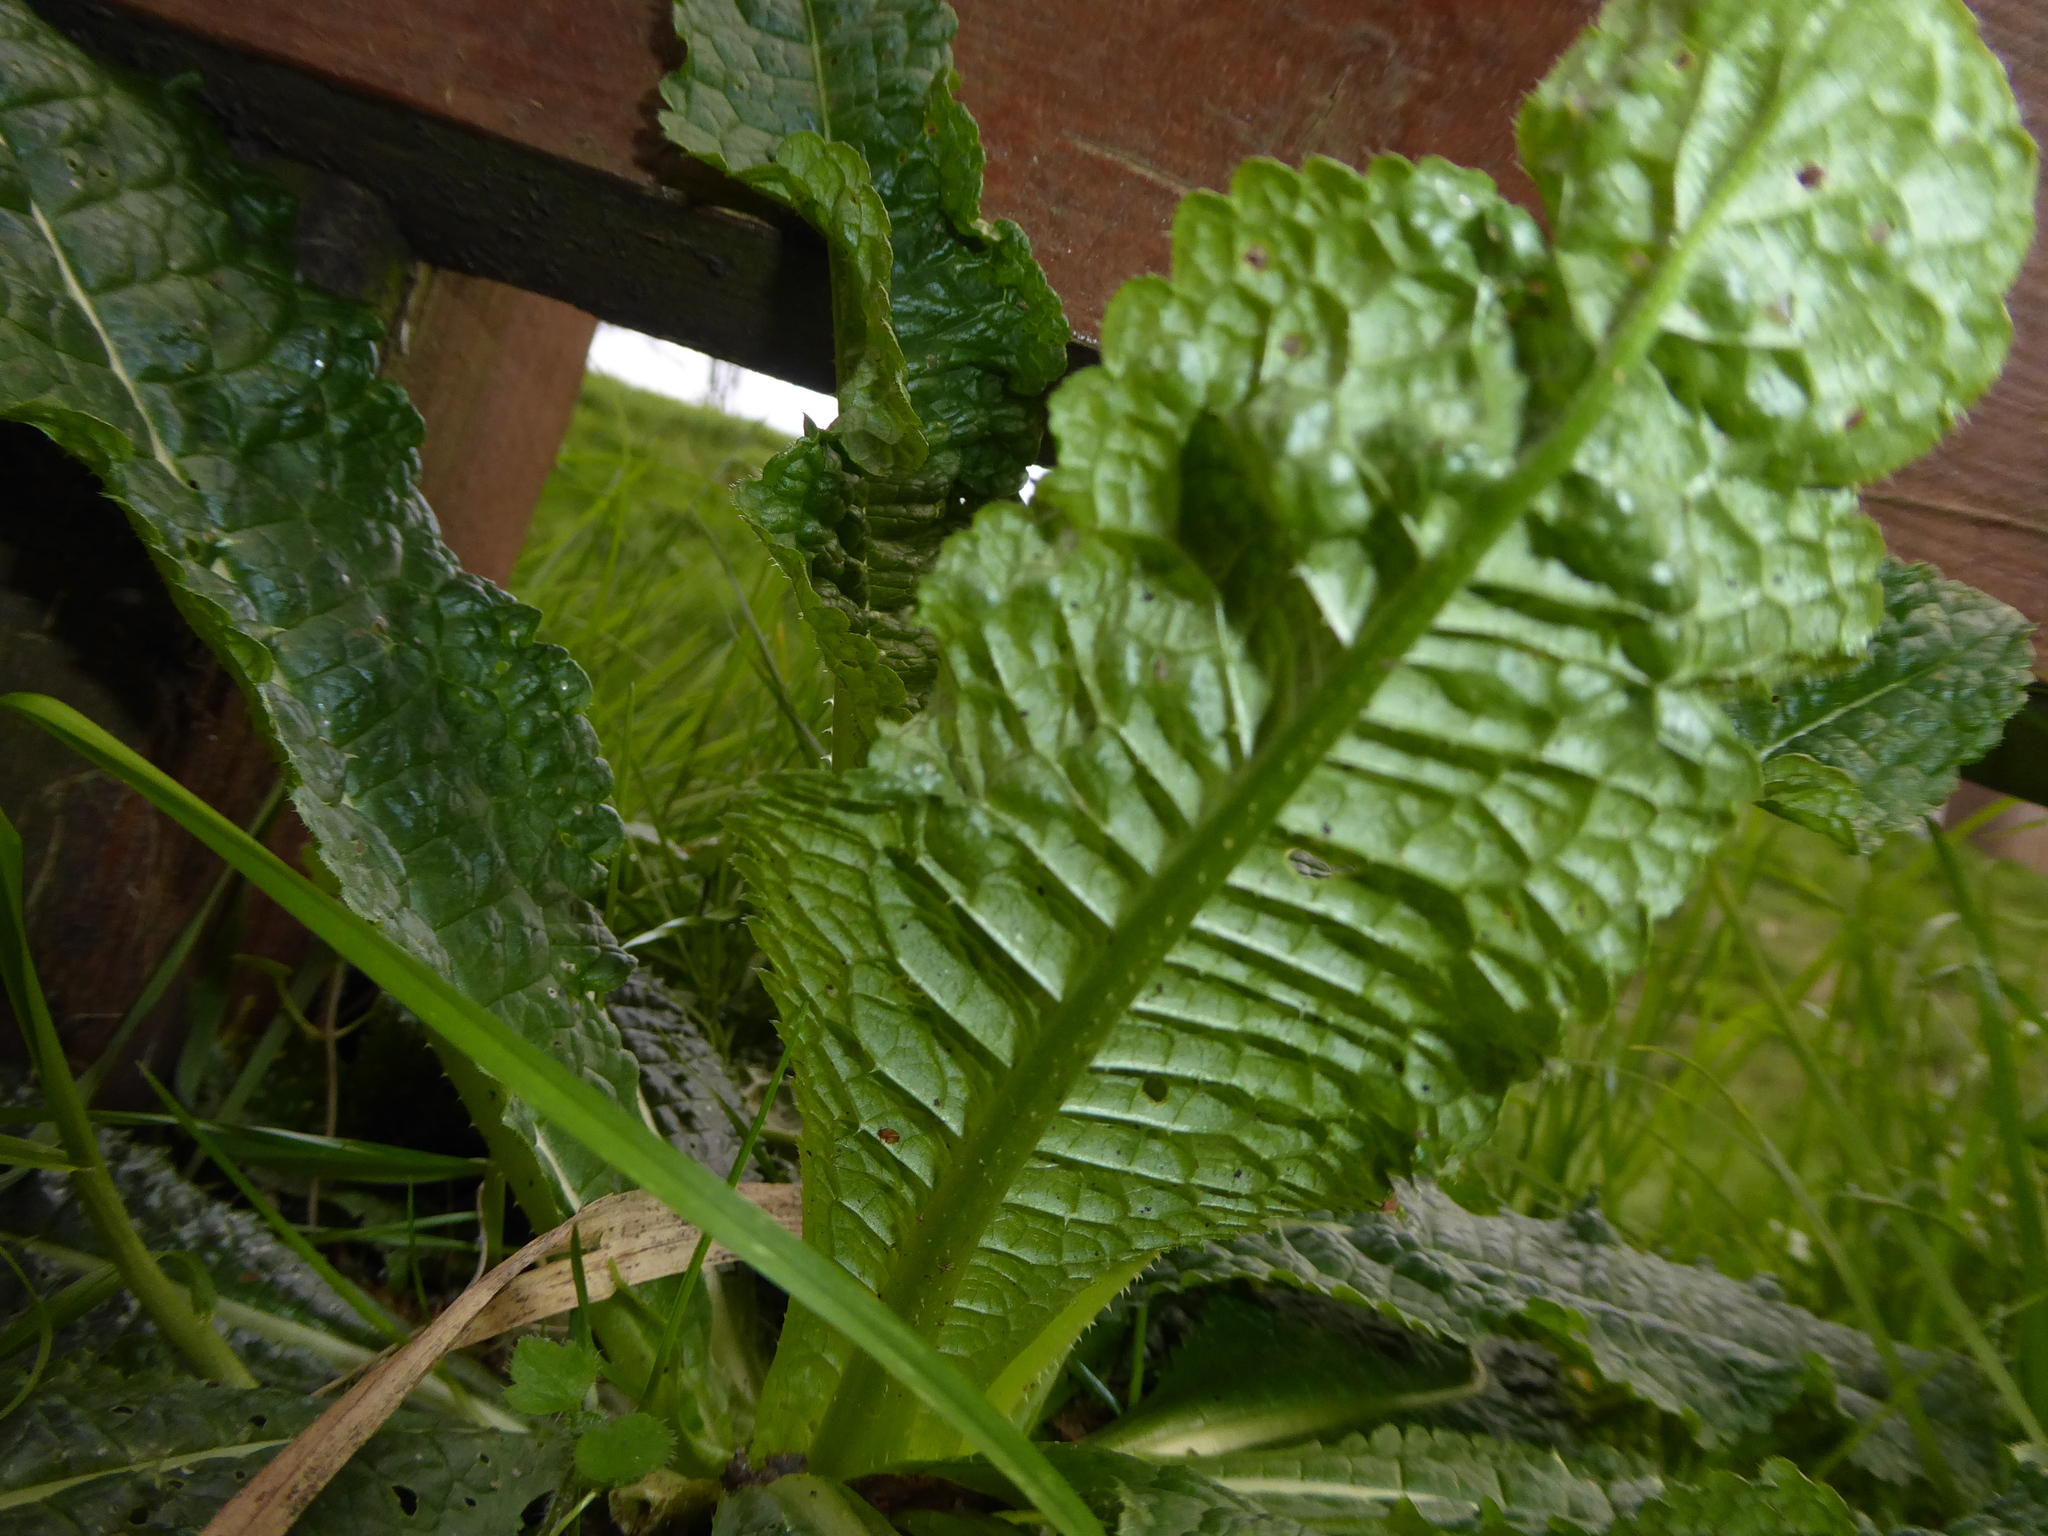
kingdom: Plantae
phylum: Tracheophyta
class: Magnoliopsida
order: Dipsacales
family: Caprifoliaceae
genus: Dipsacus
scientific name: Dipsacus fullonum
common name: Teasel
